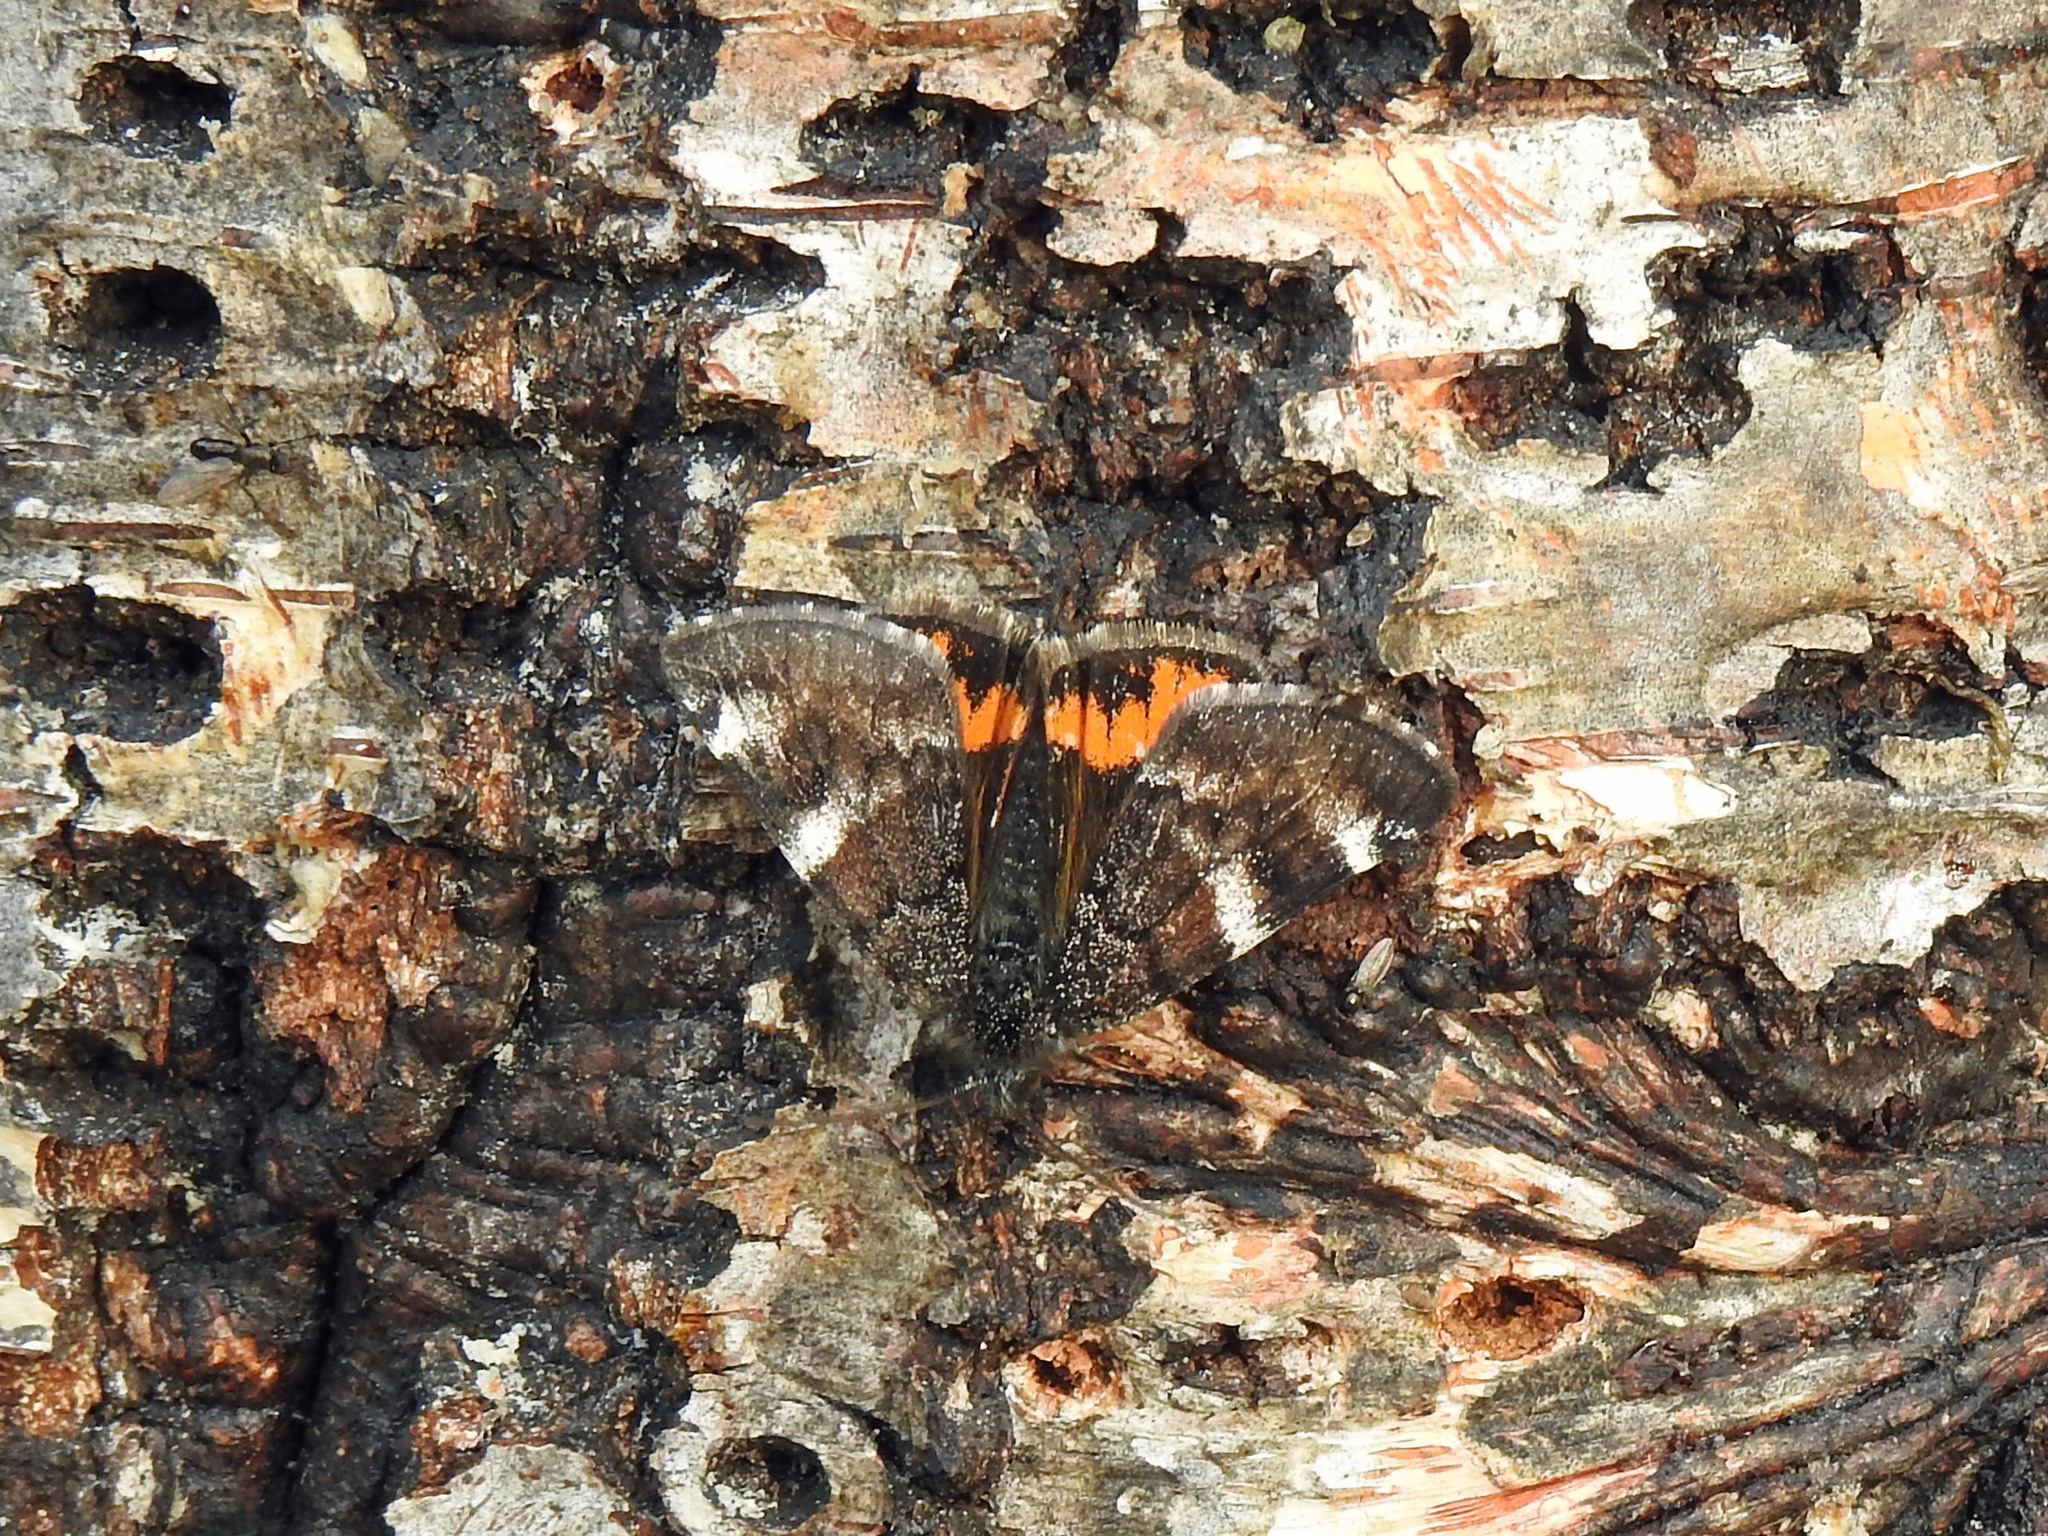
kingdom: Animalia
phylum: Arthropoda
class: Insecta
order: Lepidoptera
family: Geometridae
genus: Archiearis
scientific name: Archiearis infans
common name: First born geometer
